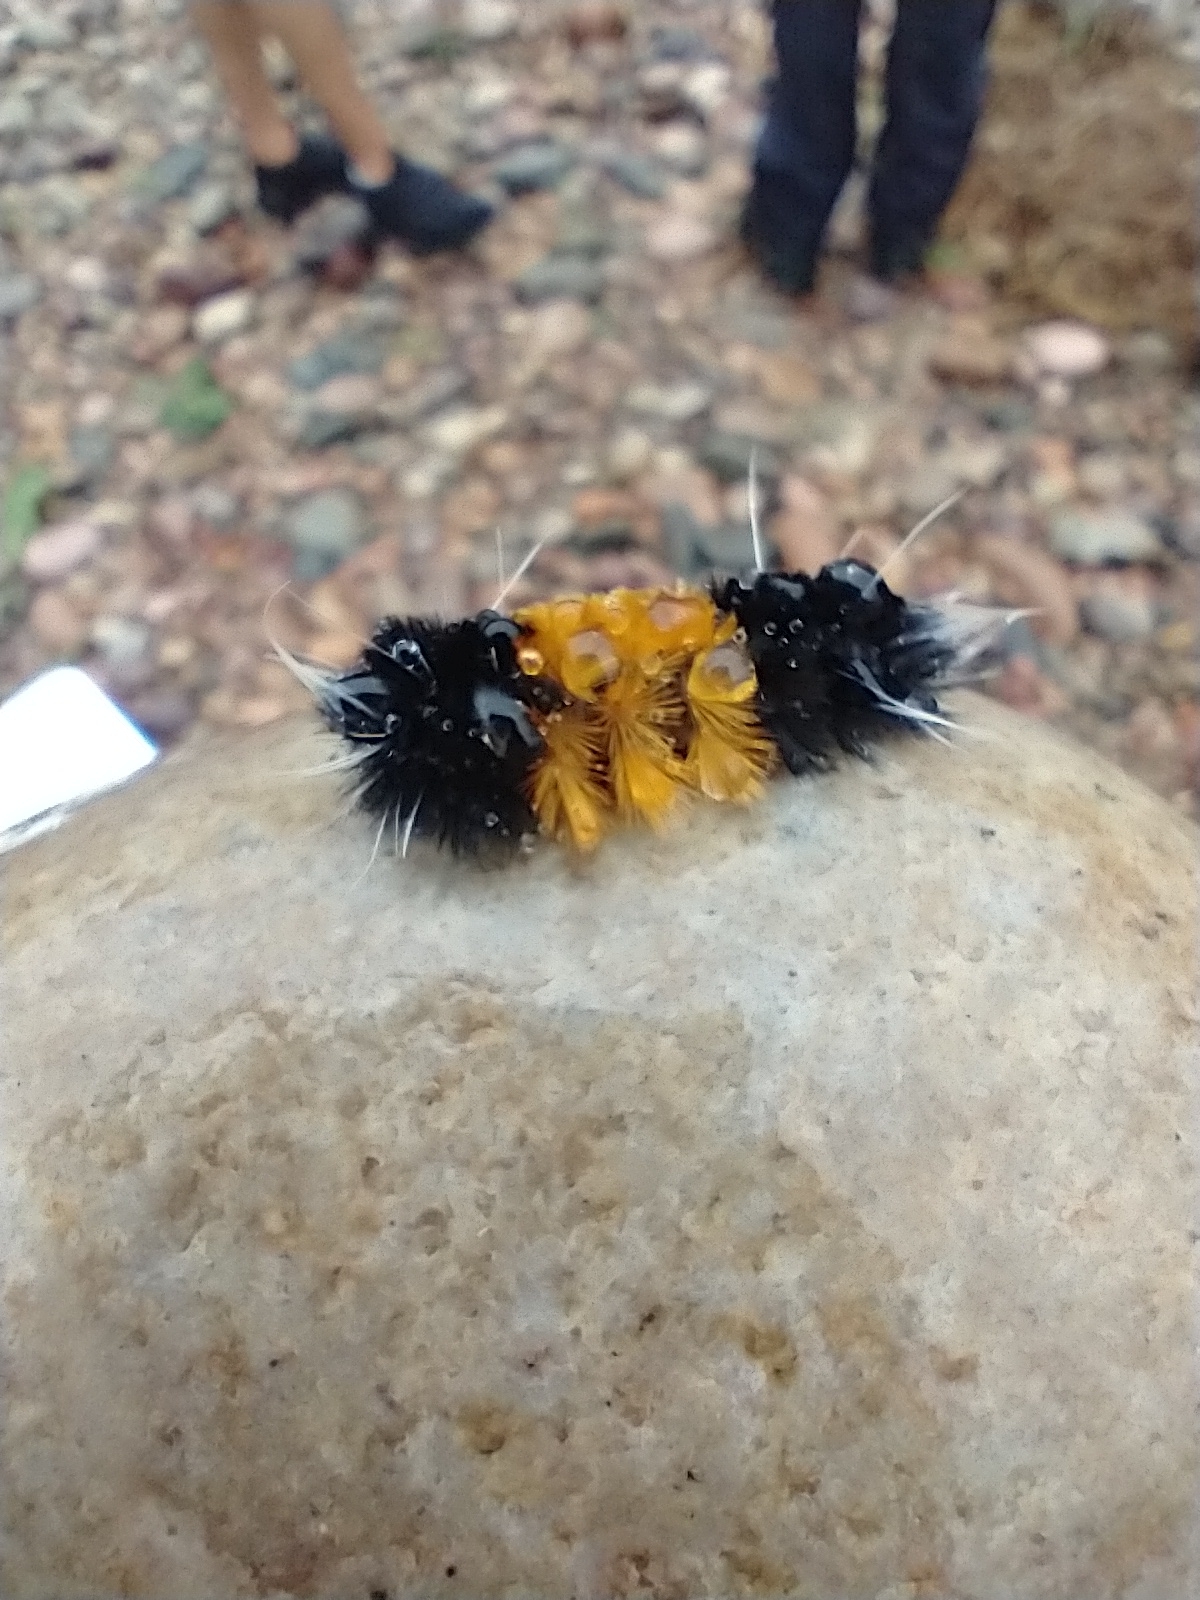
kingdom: Animalia
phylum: Arthropoda
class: Insecta
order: Lepidoptera
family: Erebidae
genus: Lophocampa
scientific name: Lophocampa maculata
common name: Spotted tussock moth
